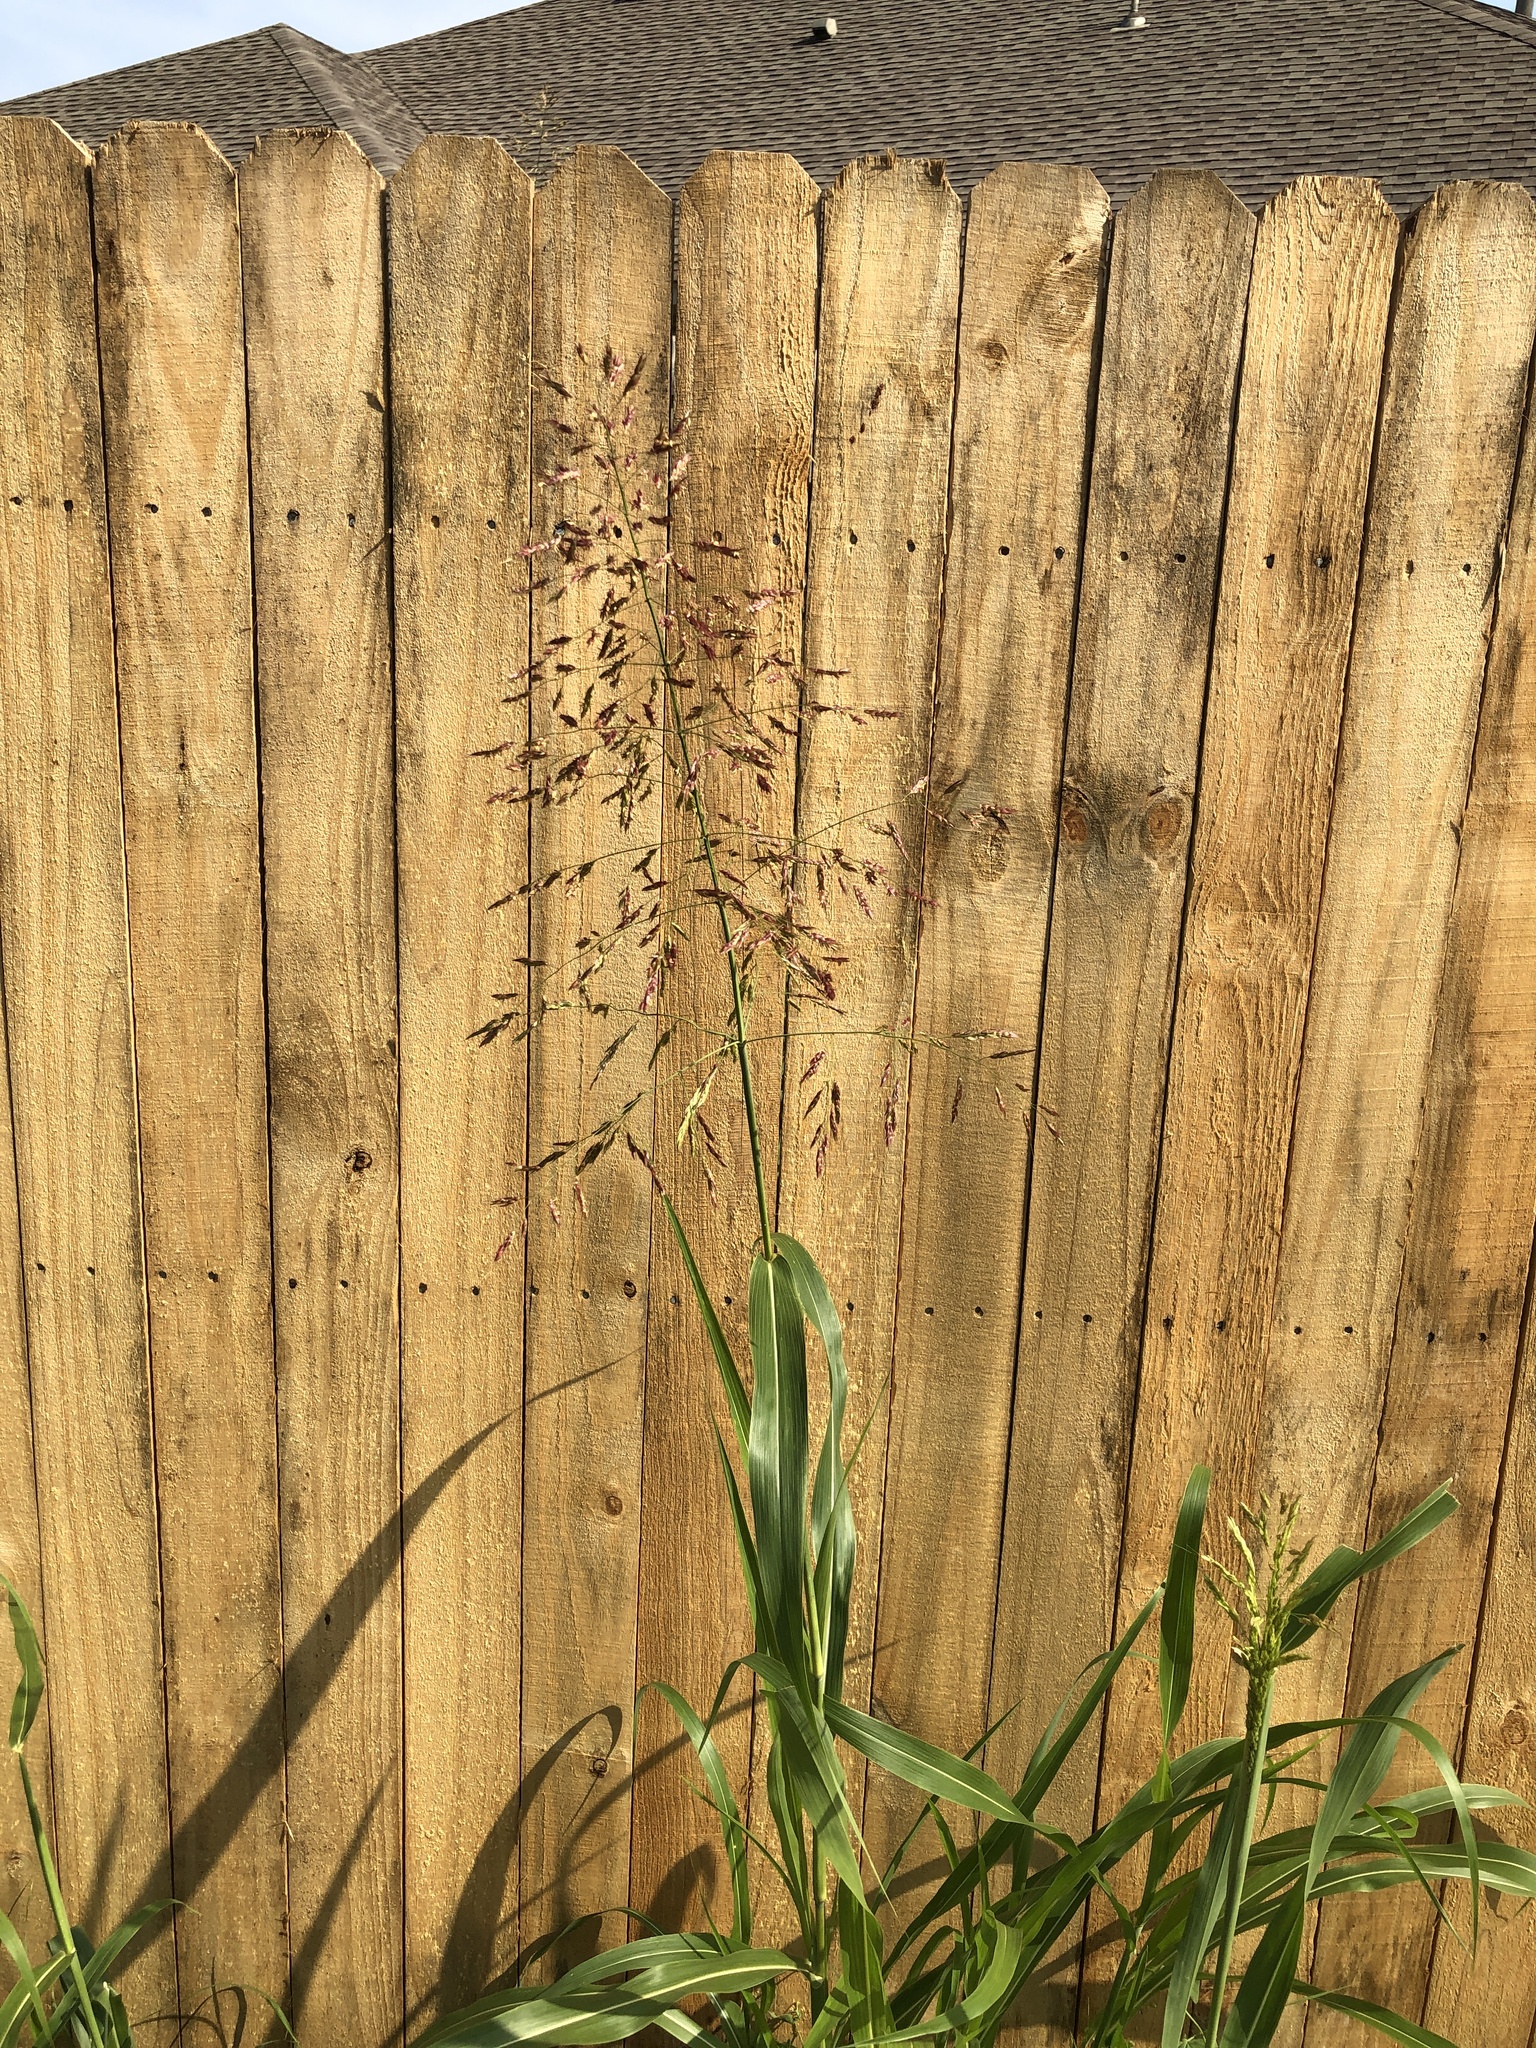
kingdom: Plantae
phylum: Tracheophyta
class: Liliopsida
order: Poales
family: Poaceae
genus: Sorghum
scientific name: Sorghum halepense
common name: Johnson-grass
